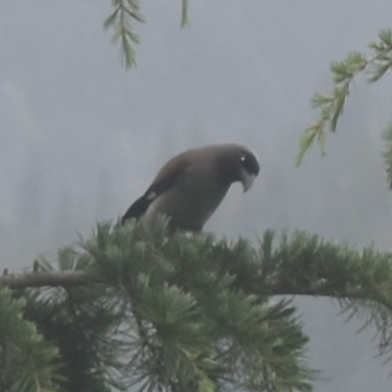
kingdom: Animalia
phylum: Chordata
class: Aves
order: Passeriformes
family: Corvidae
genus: Dendrocitta
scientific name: Dendrocitta formosae
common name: Grey treepie
